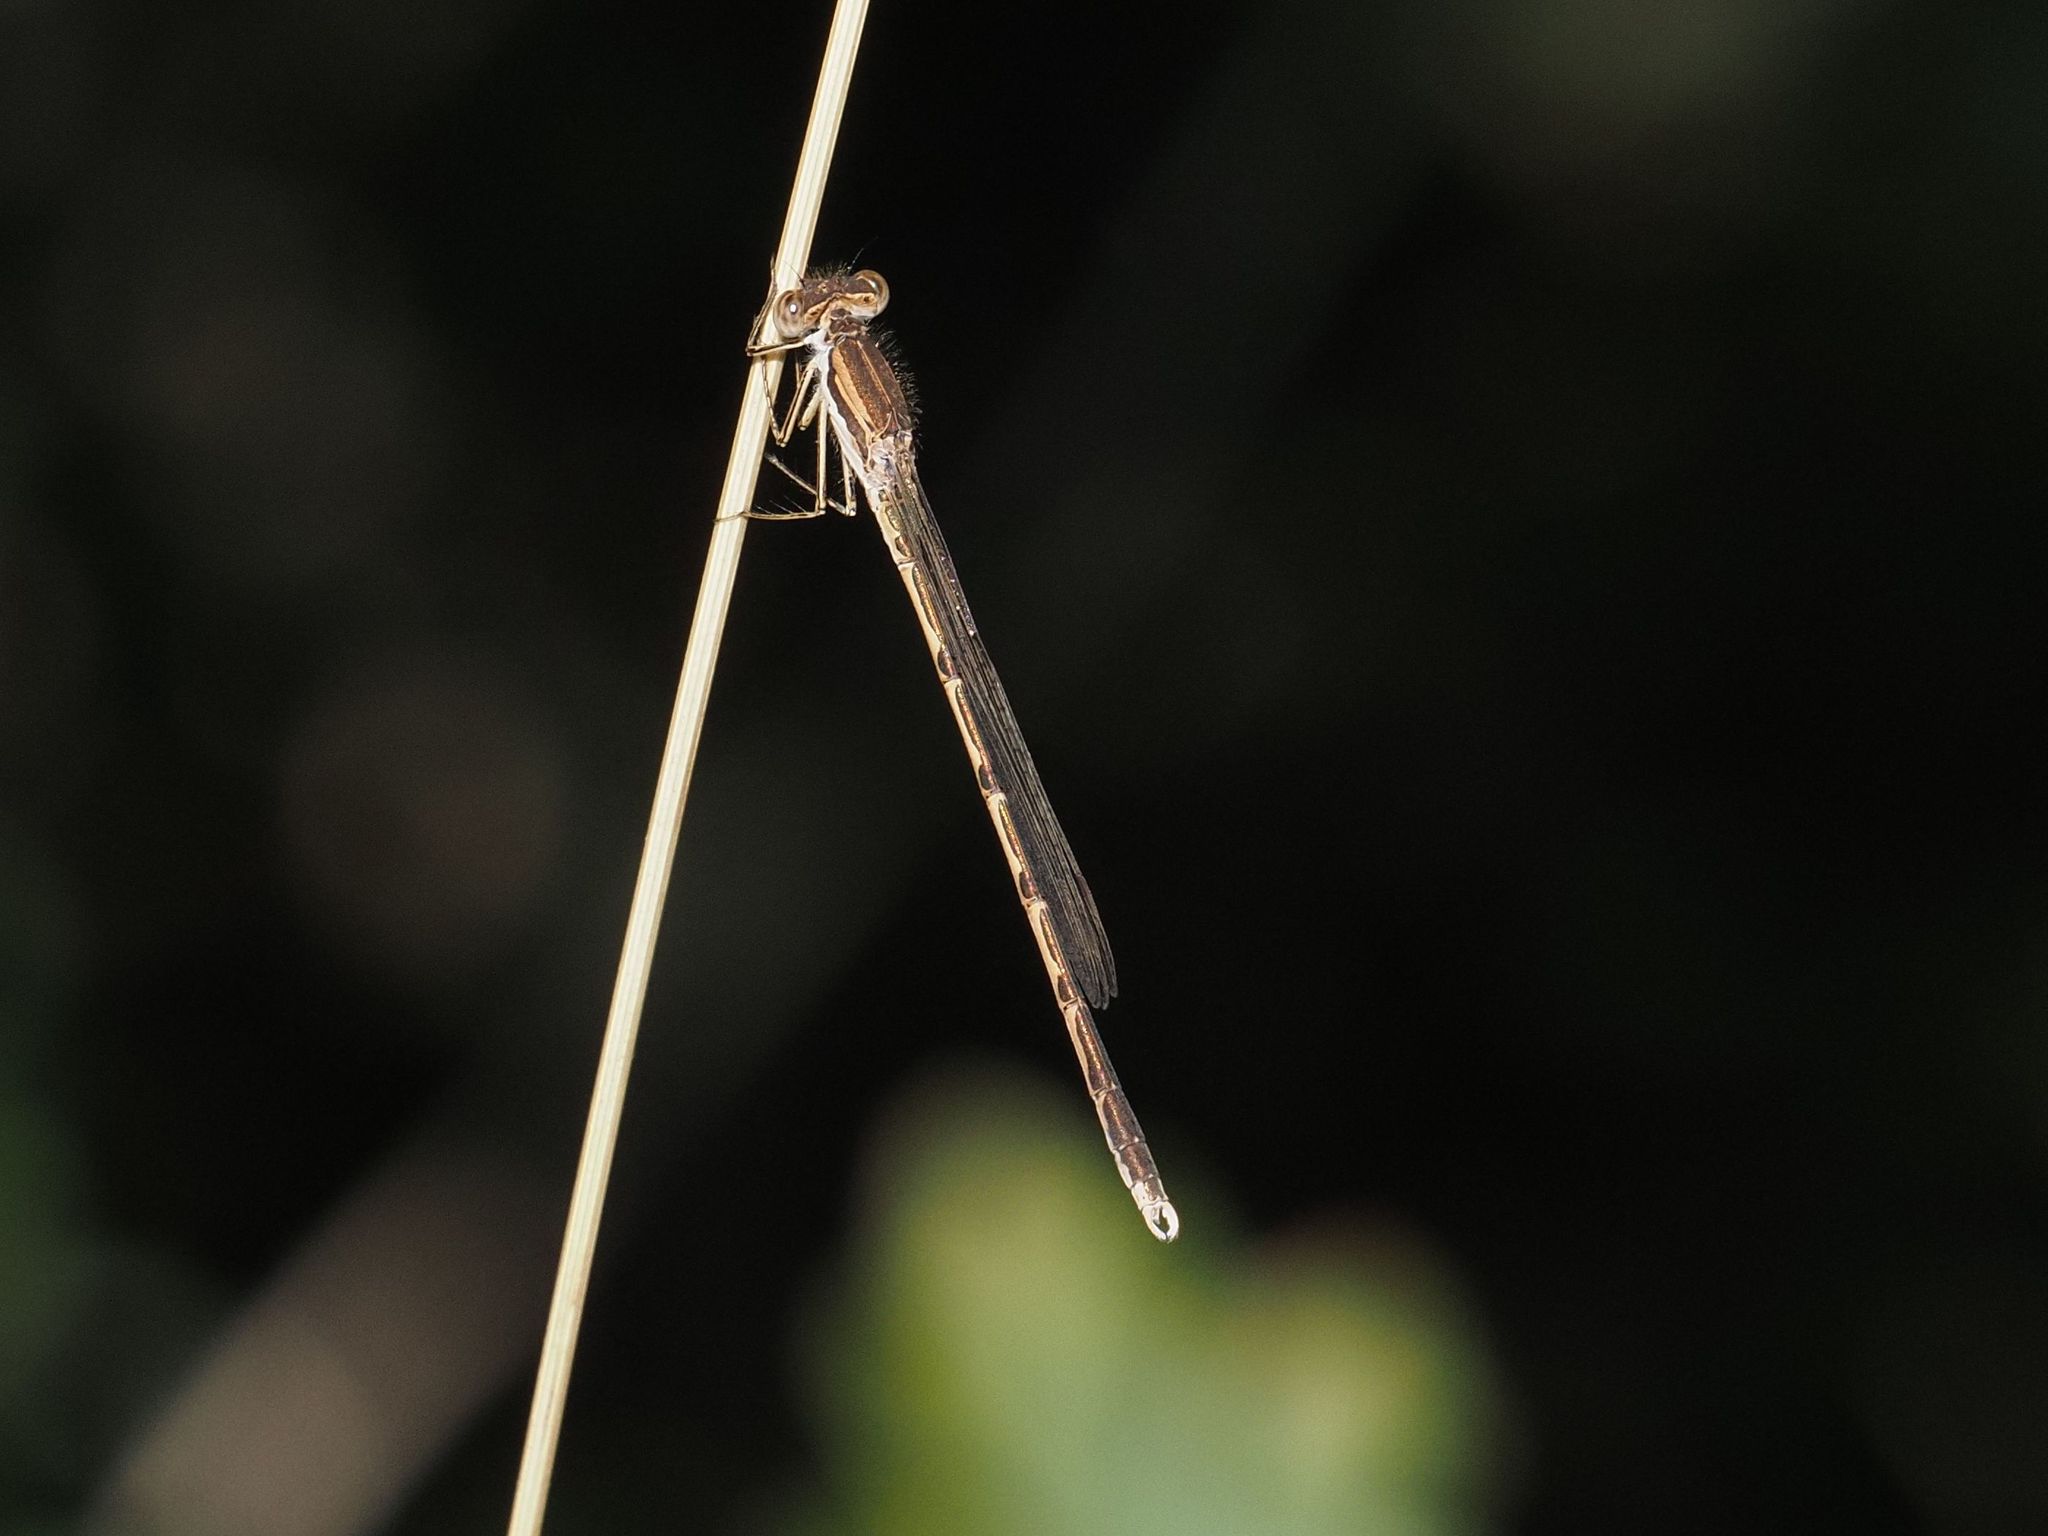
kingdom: Animalia
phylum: Arthropoda
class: Insecta
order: Odonata
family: Lestidae
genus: Sympecma
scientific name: Sympecma fusca
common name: Common winter damsel
